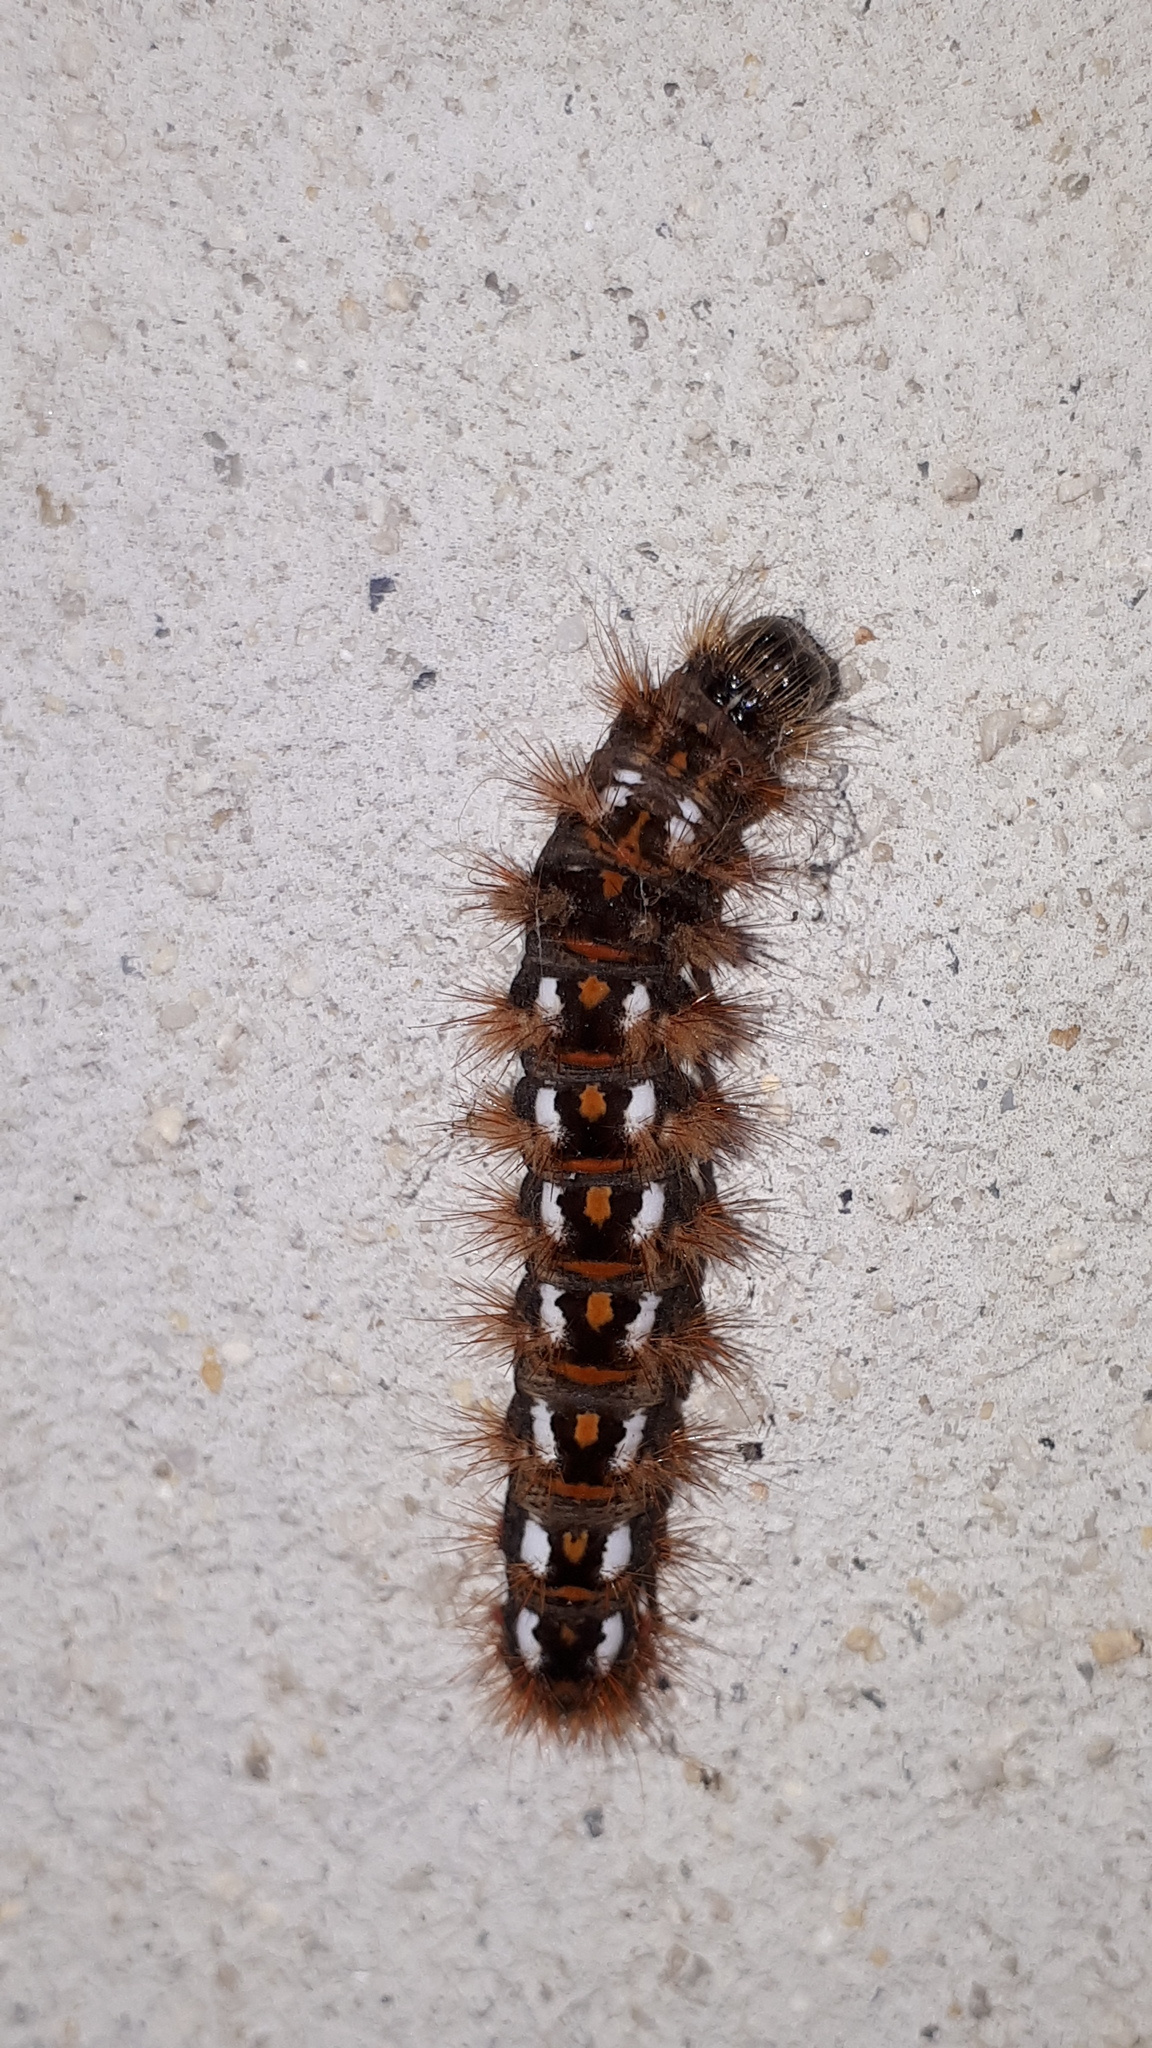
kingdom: Animalia
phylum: Arthropoda
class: Insecta
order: Lepidoptera
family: Noctuidae
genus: Acronicta
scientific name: Acronicta rumicis
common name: Knot grass
